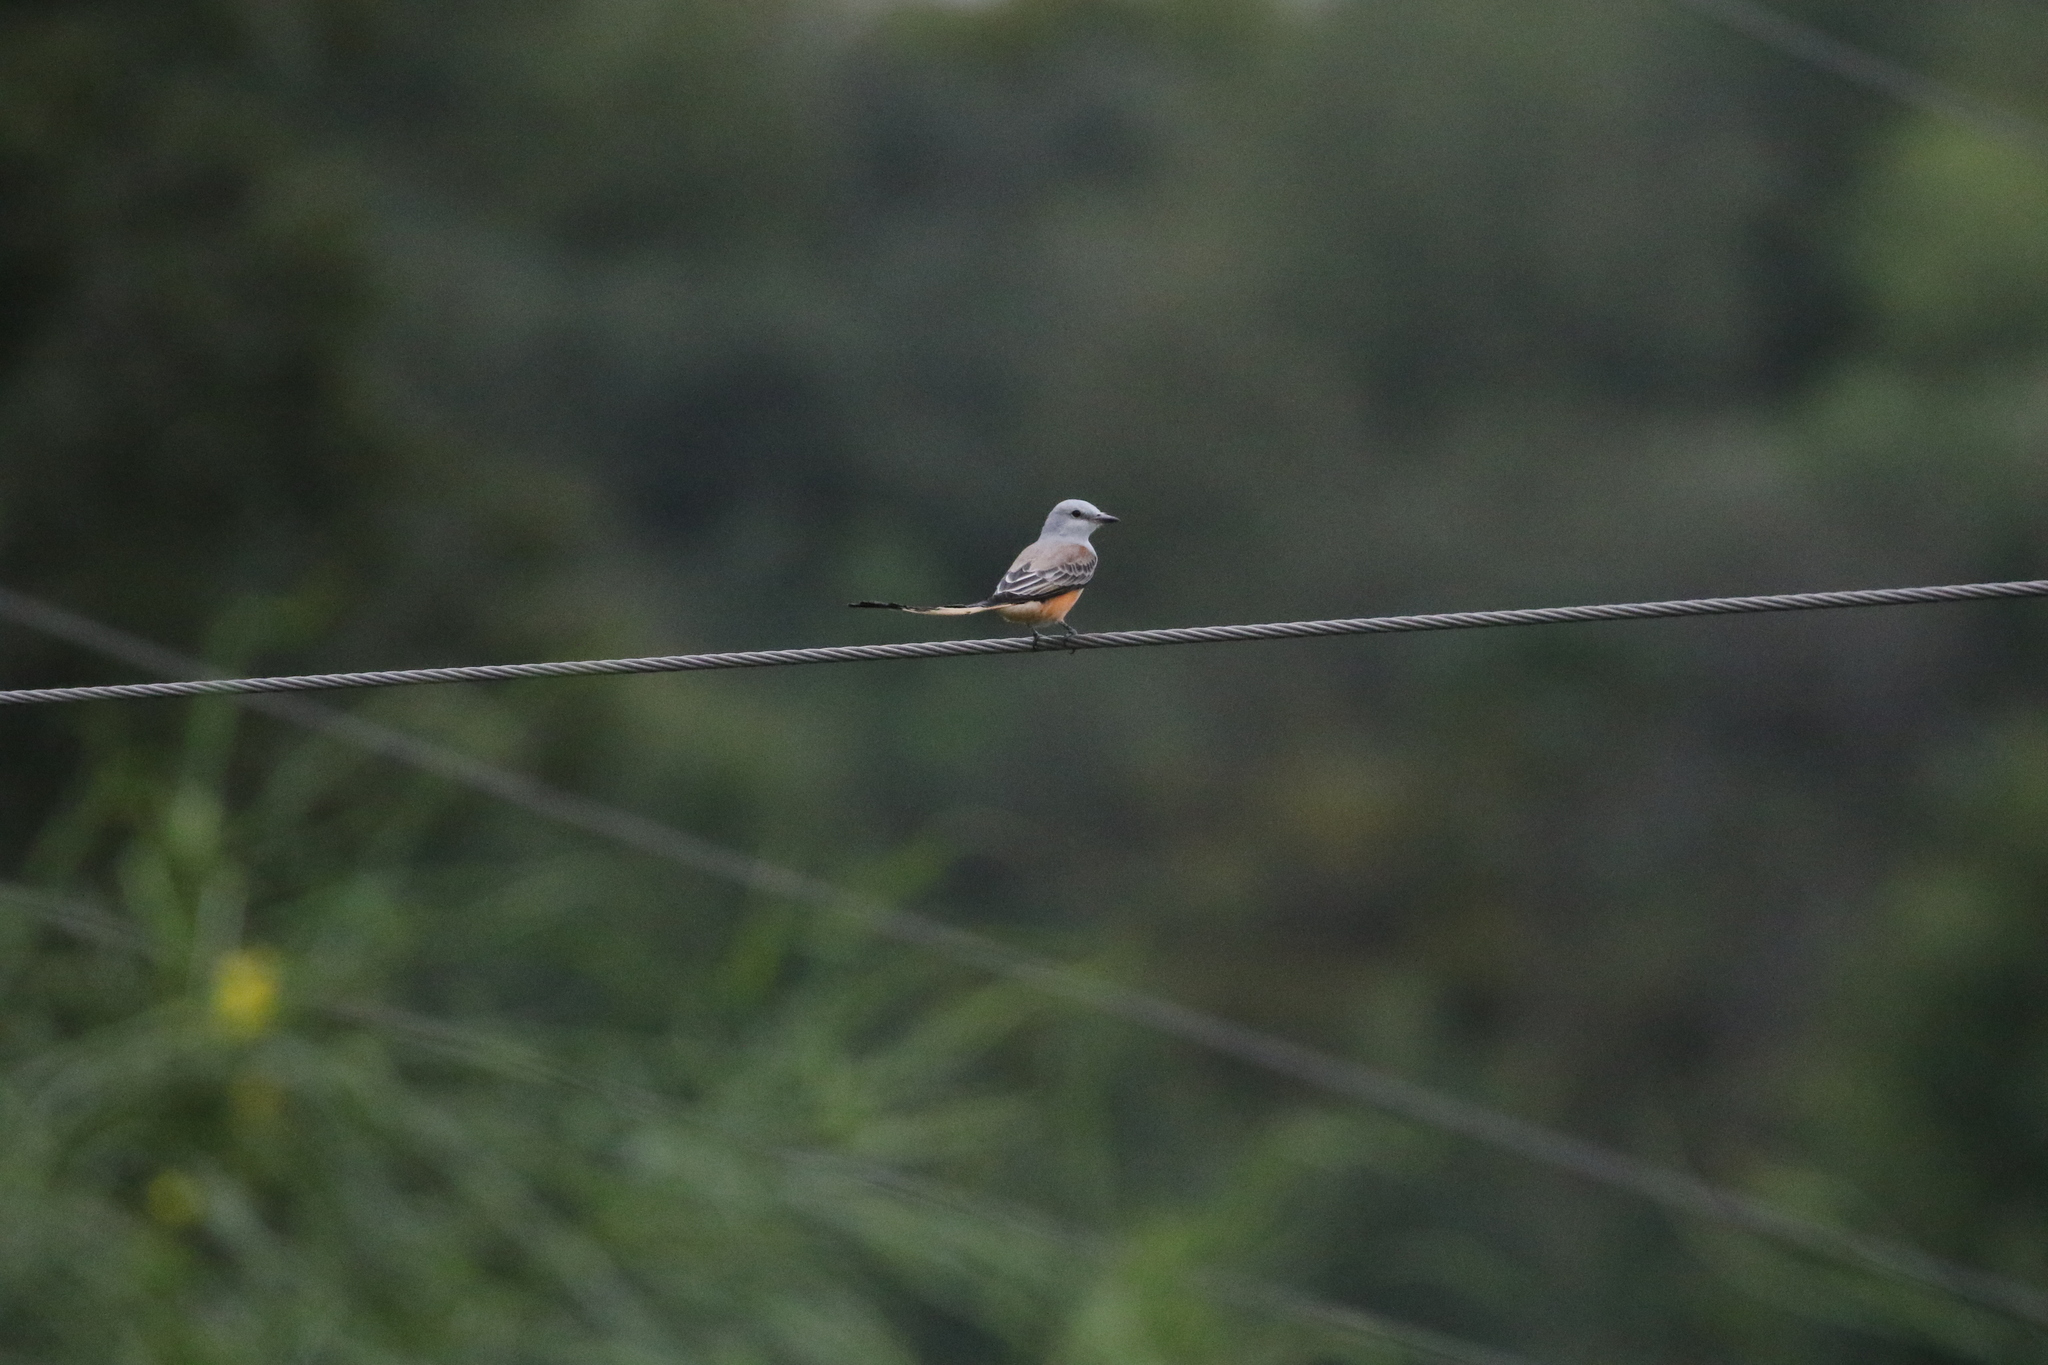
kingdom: Animalia
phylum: Chordata
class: Aves
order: Passeriformes
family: Tyrannidae
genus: Tyrannus
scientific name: Tyrannus forficatus
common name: Scissor-tailed flycatcher
